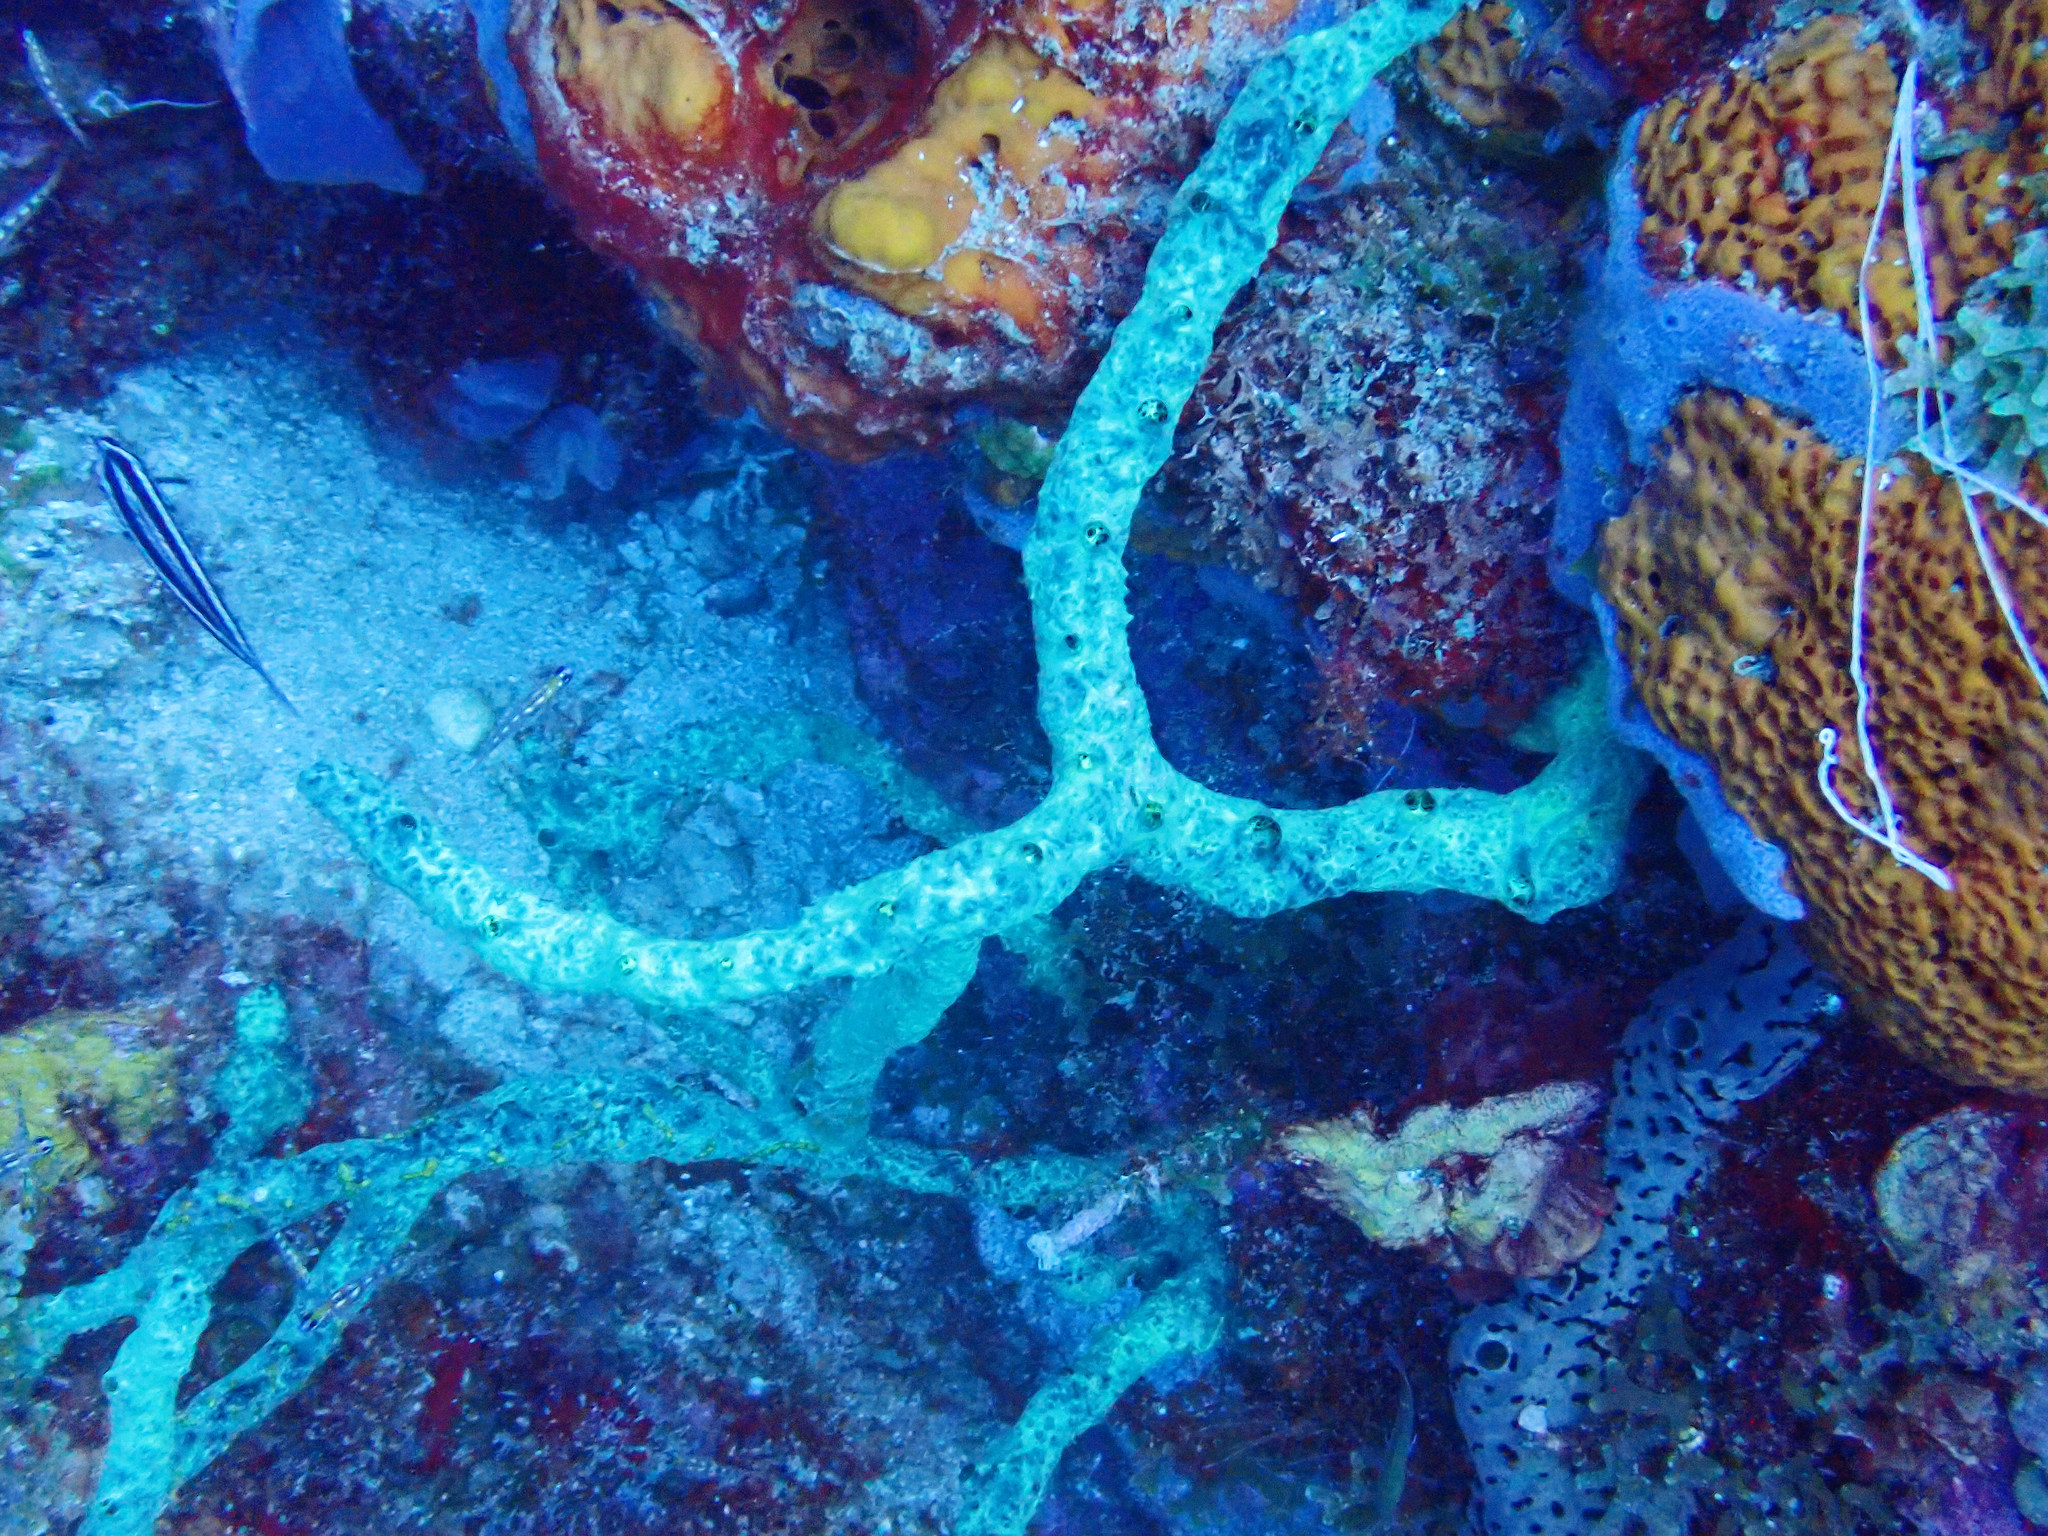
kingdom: Animalia
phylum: Porifera
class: Demospongiae
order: Poecilosclerida
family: Iotrochotidae
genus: Iotrochota
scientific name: Iotrochota birotulata
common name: Purple bleeding sponge
